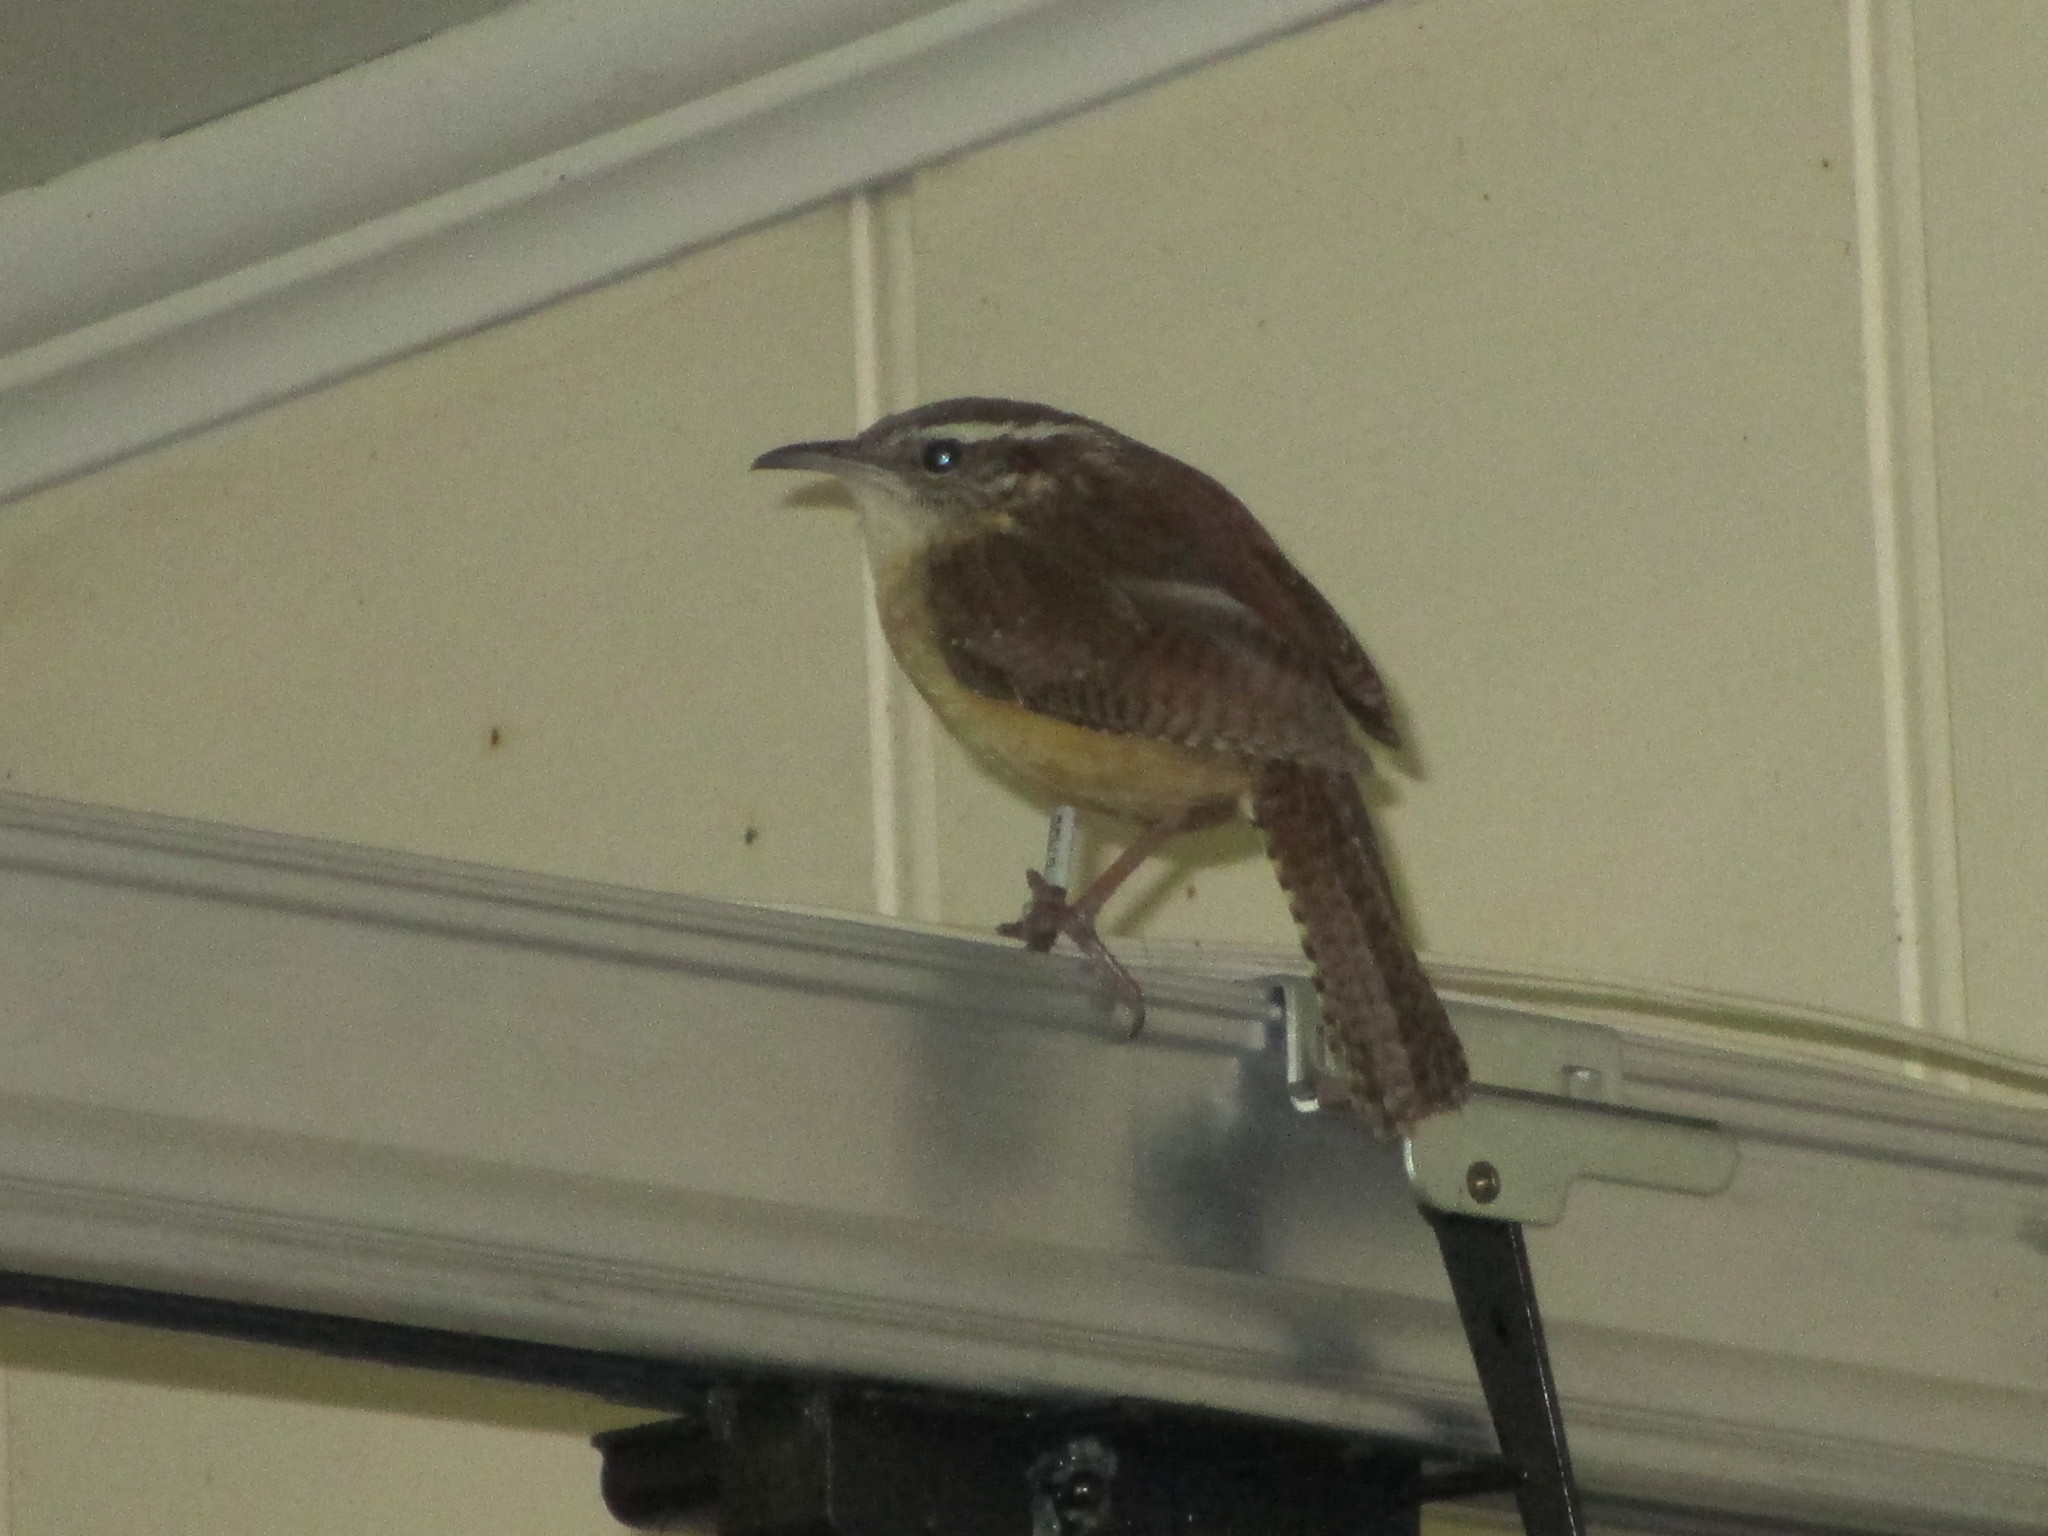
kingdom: Animalia
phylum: Chordata
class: Aves
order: Passeriformes
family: Troglodytidae
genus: Thryothorus
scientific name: Thryothorus ludovicianus
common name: Carolina wren
